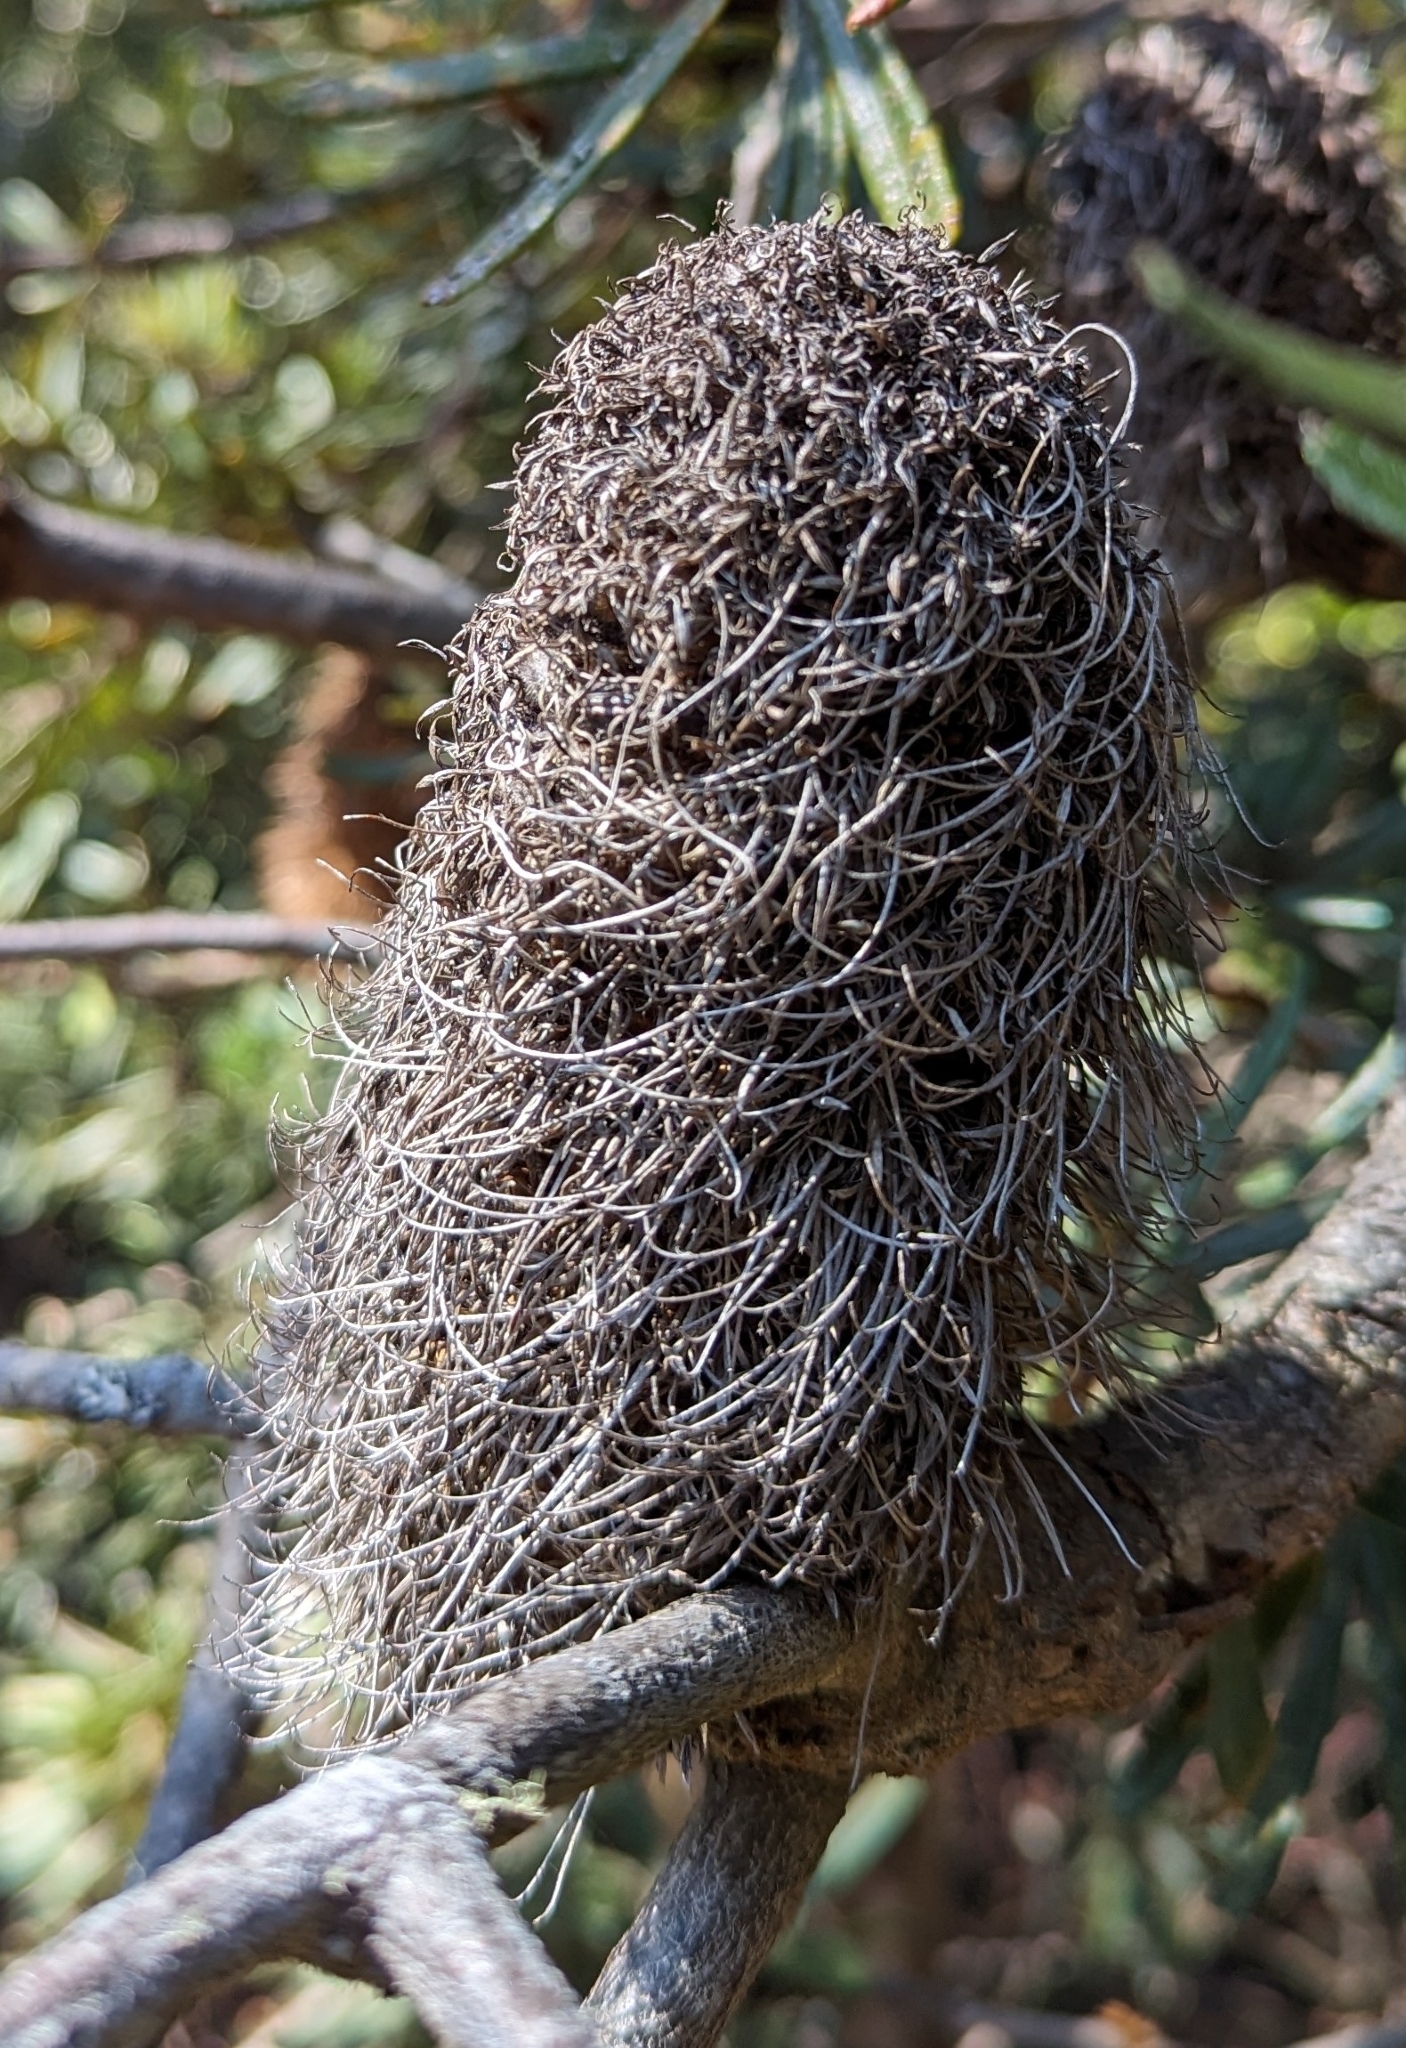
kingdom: Plantae
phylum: Tracheophyta
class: Magnoliopsida
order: Proteales
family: Proteaceae
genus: Banksia
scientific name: Banksia marginata
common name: Silver banksia
